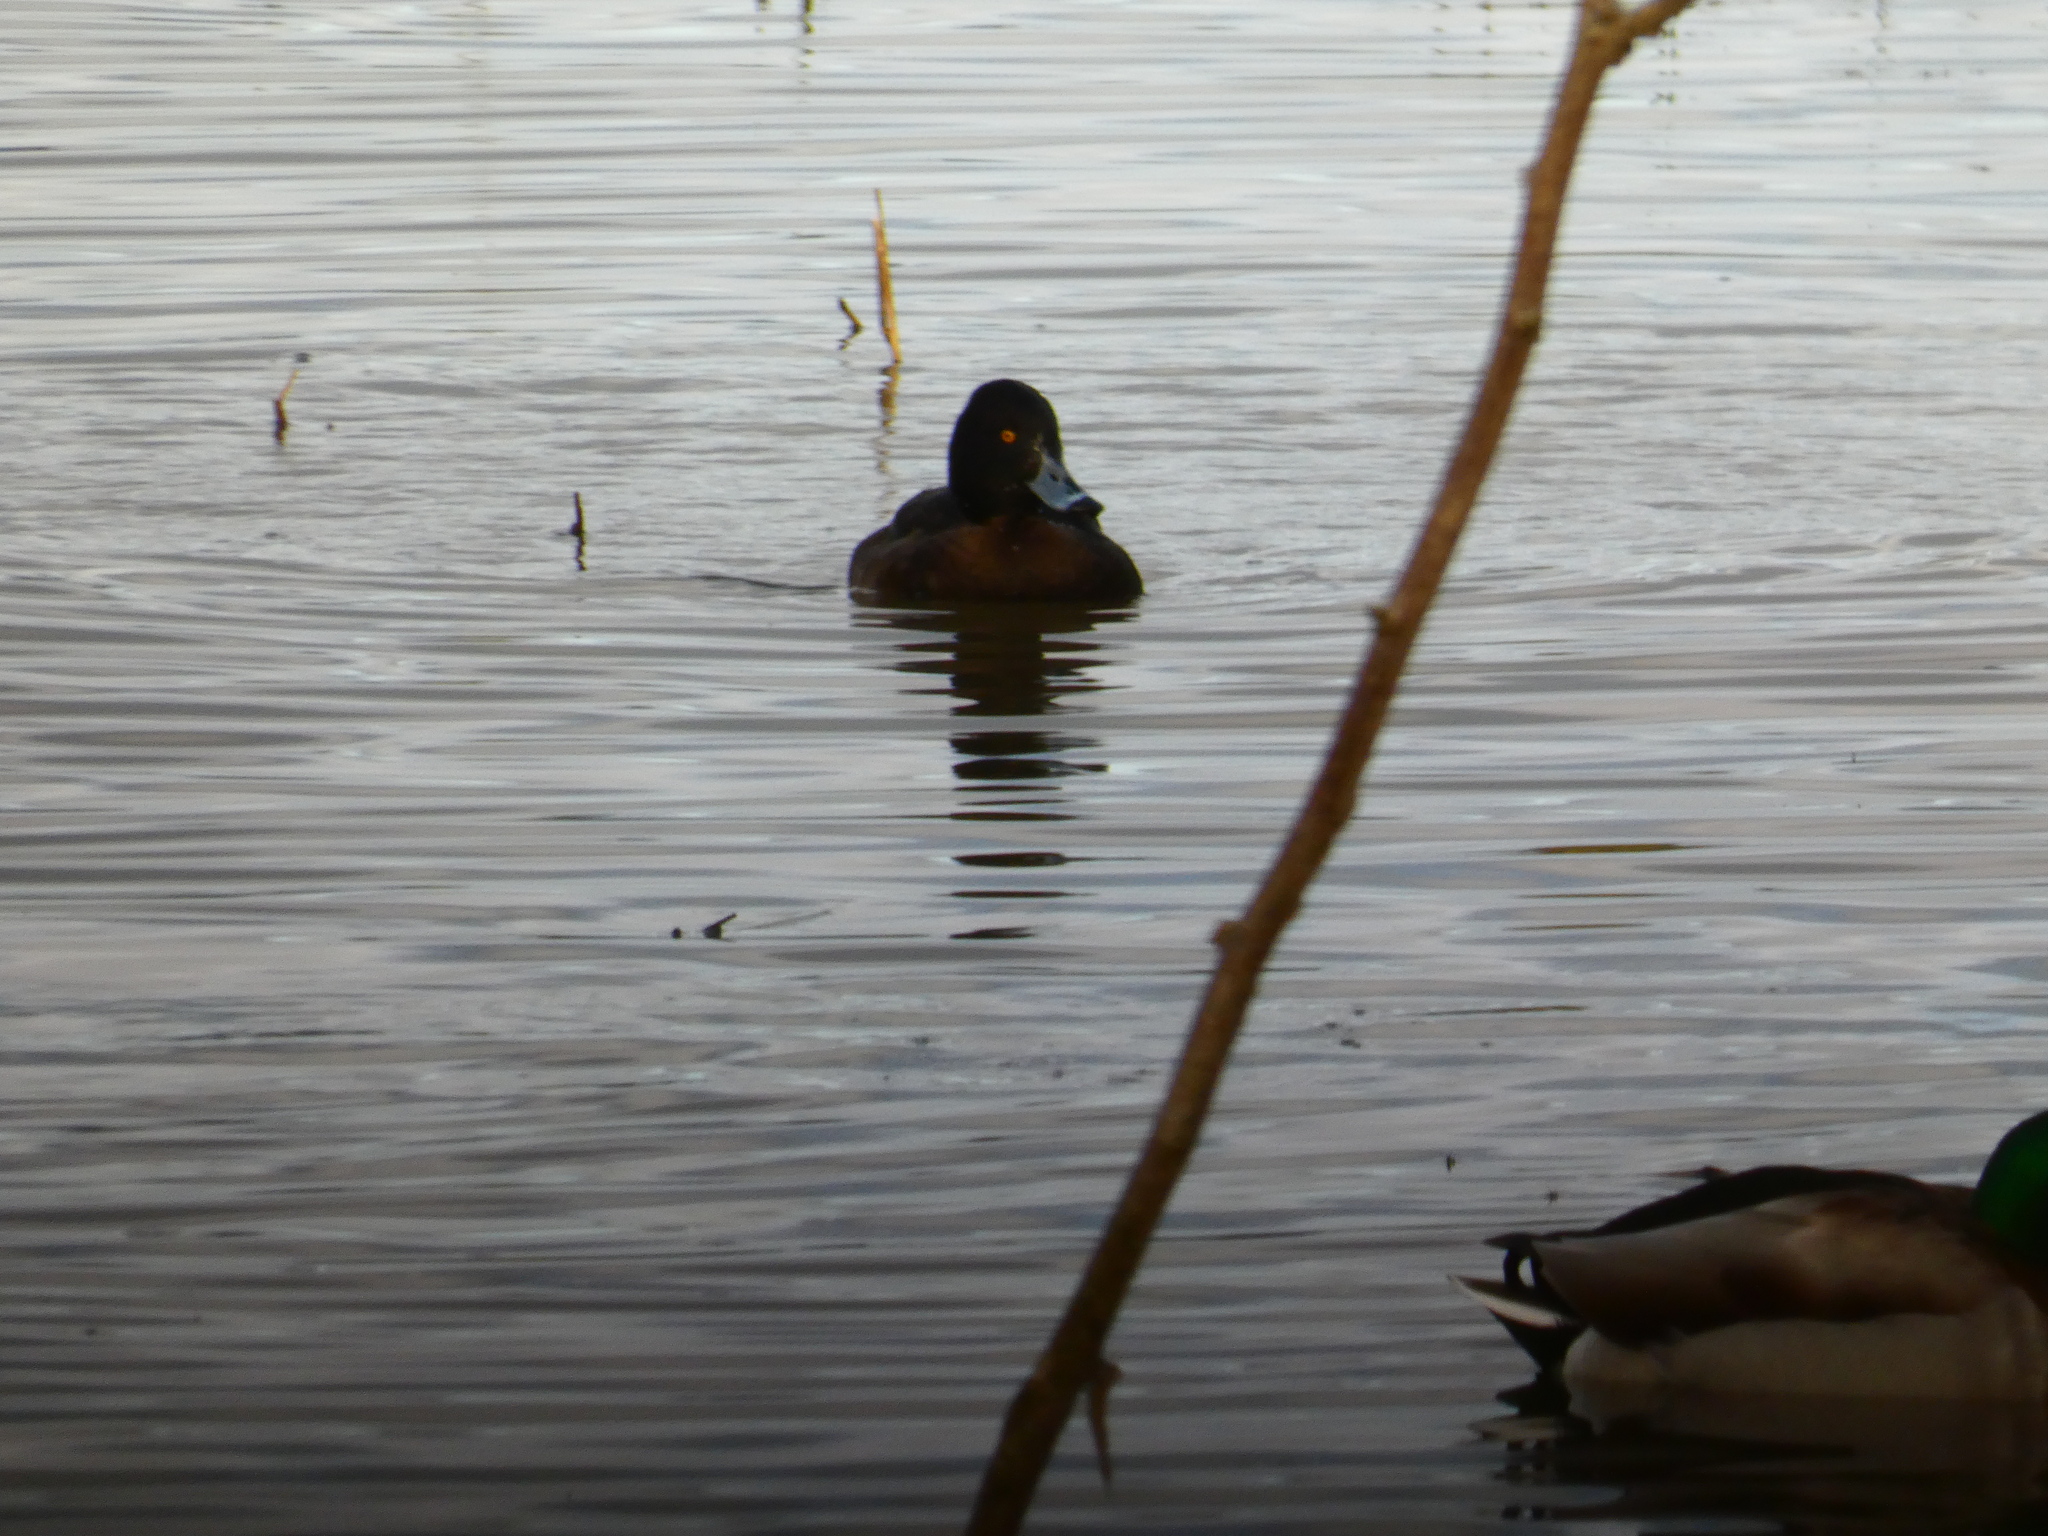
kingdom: Animalia
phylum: Chordata
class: Aves
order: Anseriformes
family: Anatidae
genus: Aythya
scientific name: Aythya fuligula
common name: Tufted duck
